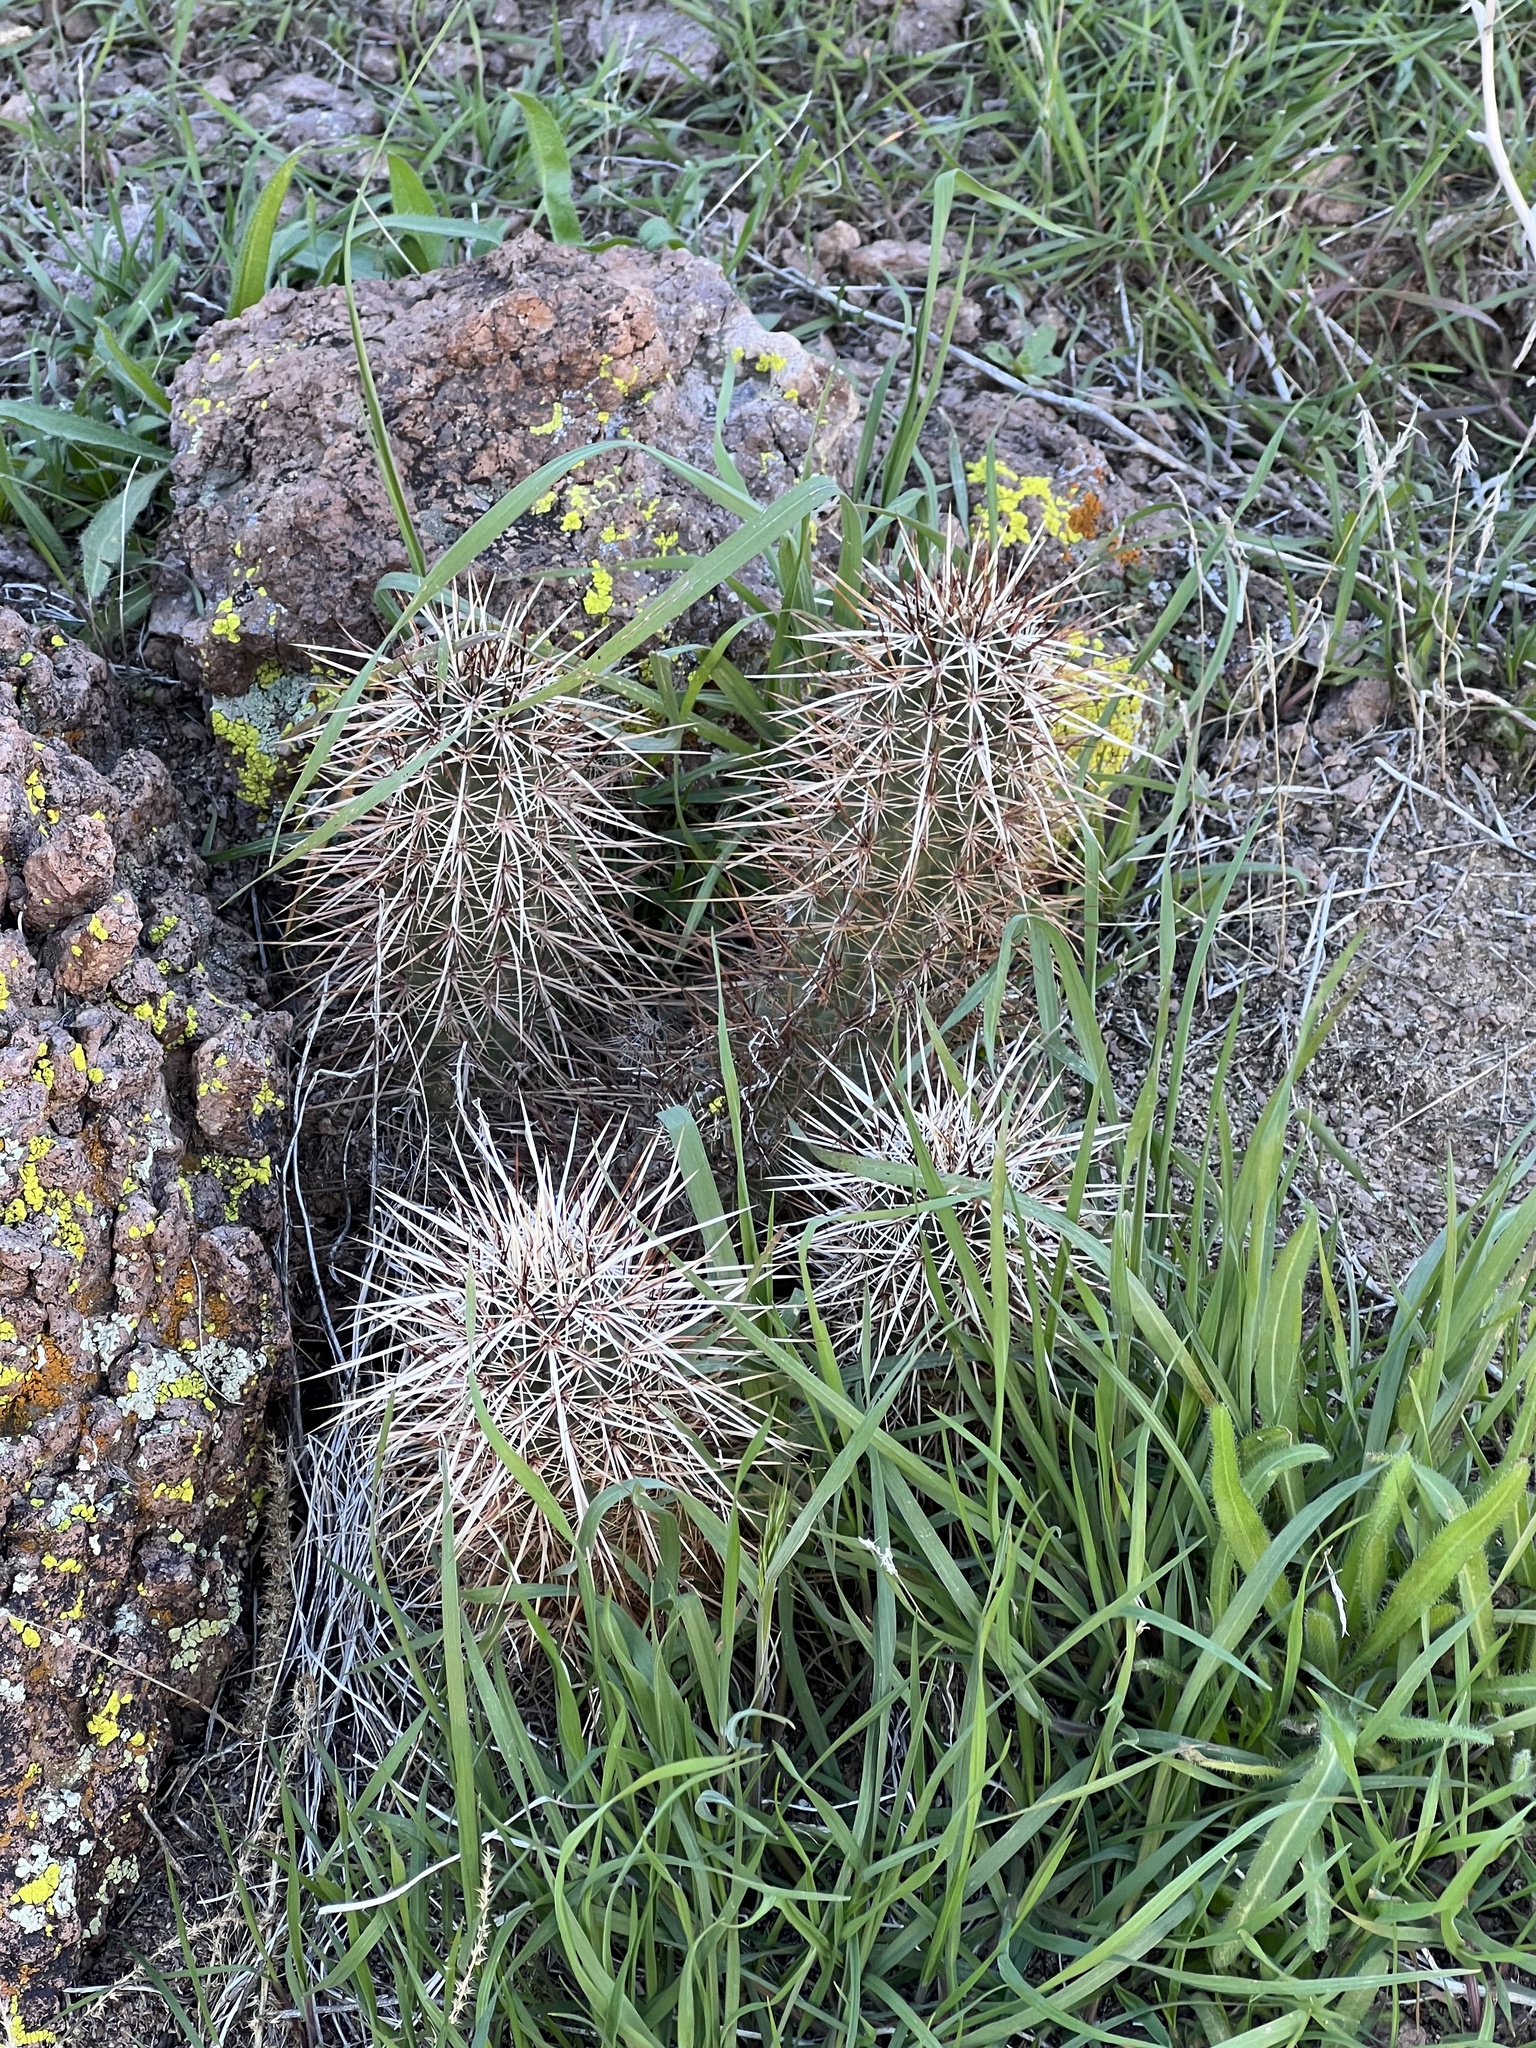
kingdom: Plantae
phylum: Tracheophyta
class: Magnoliopsida
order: Caryophyllales
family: Cactaceae
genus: Echinocereus
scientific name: Echinocereus engelmannii
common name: Engelmann's hedgehog cactus
